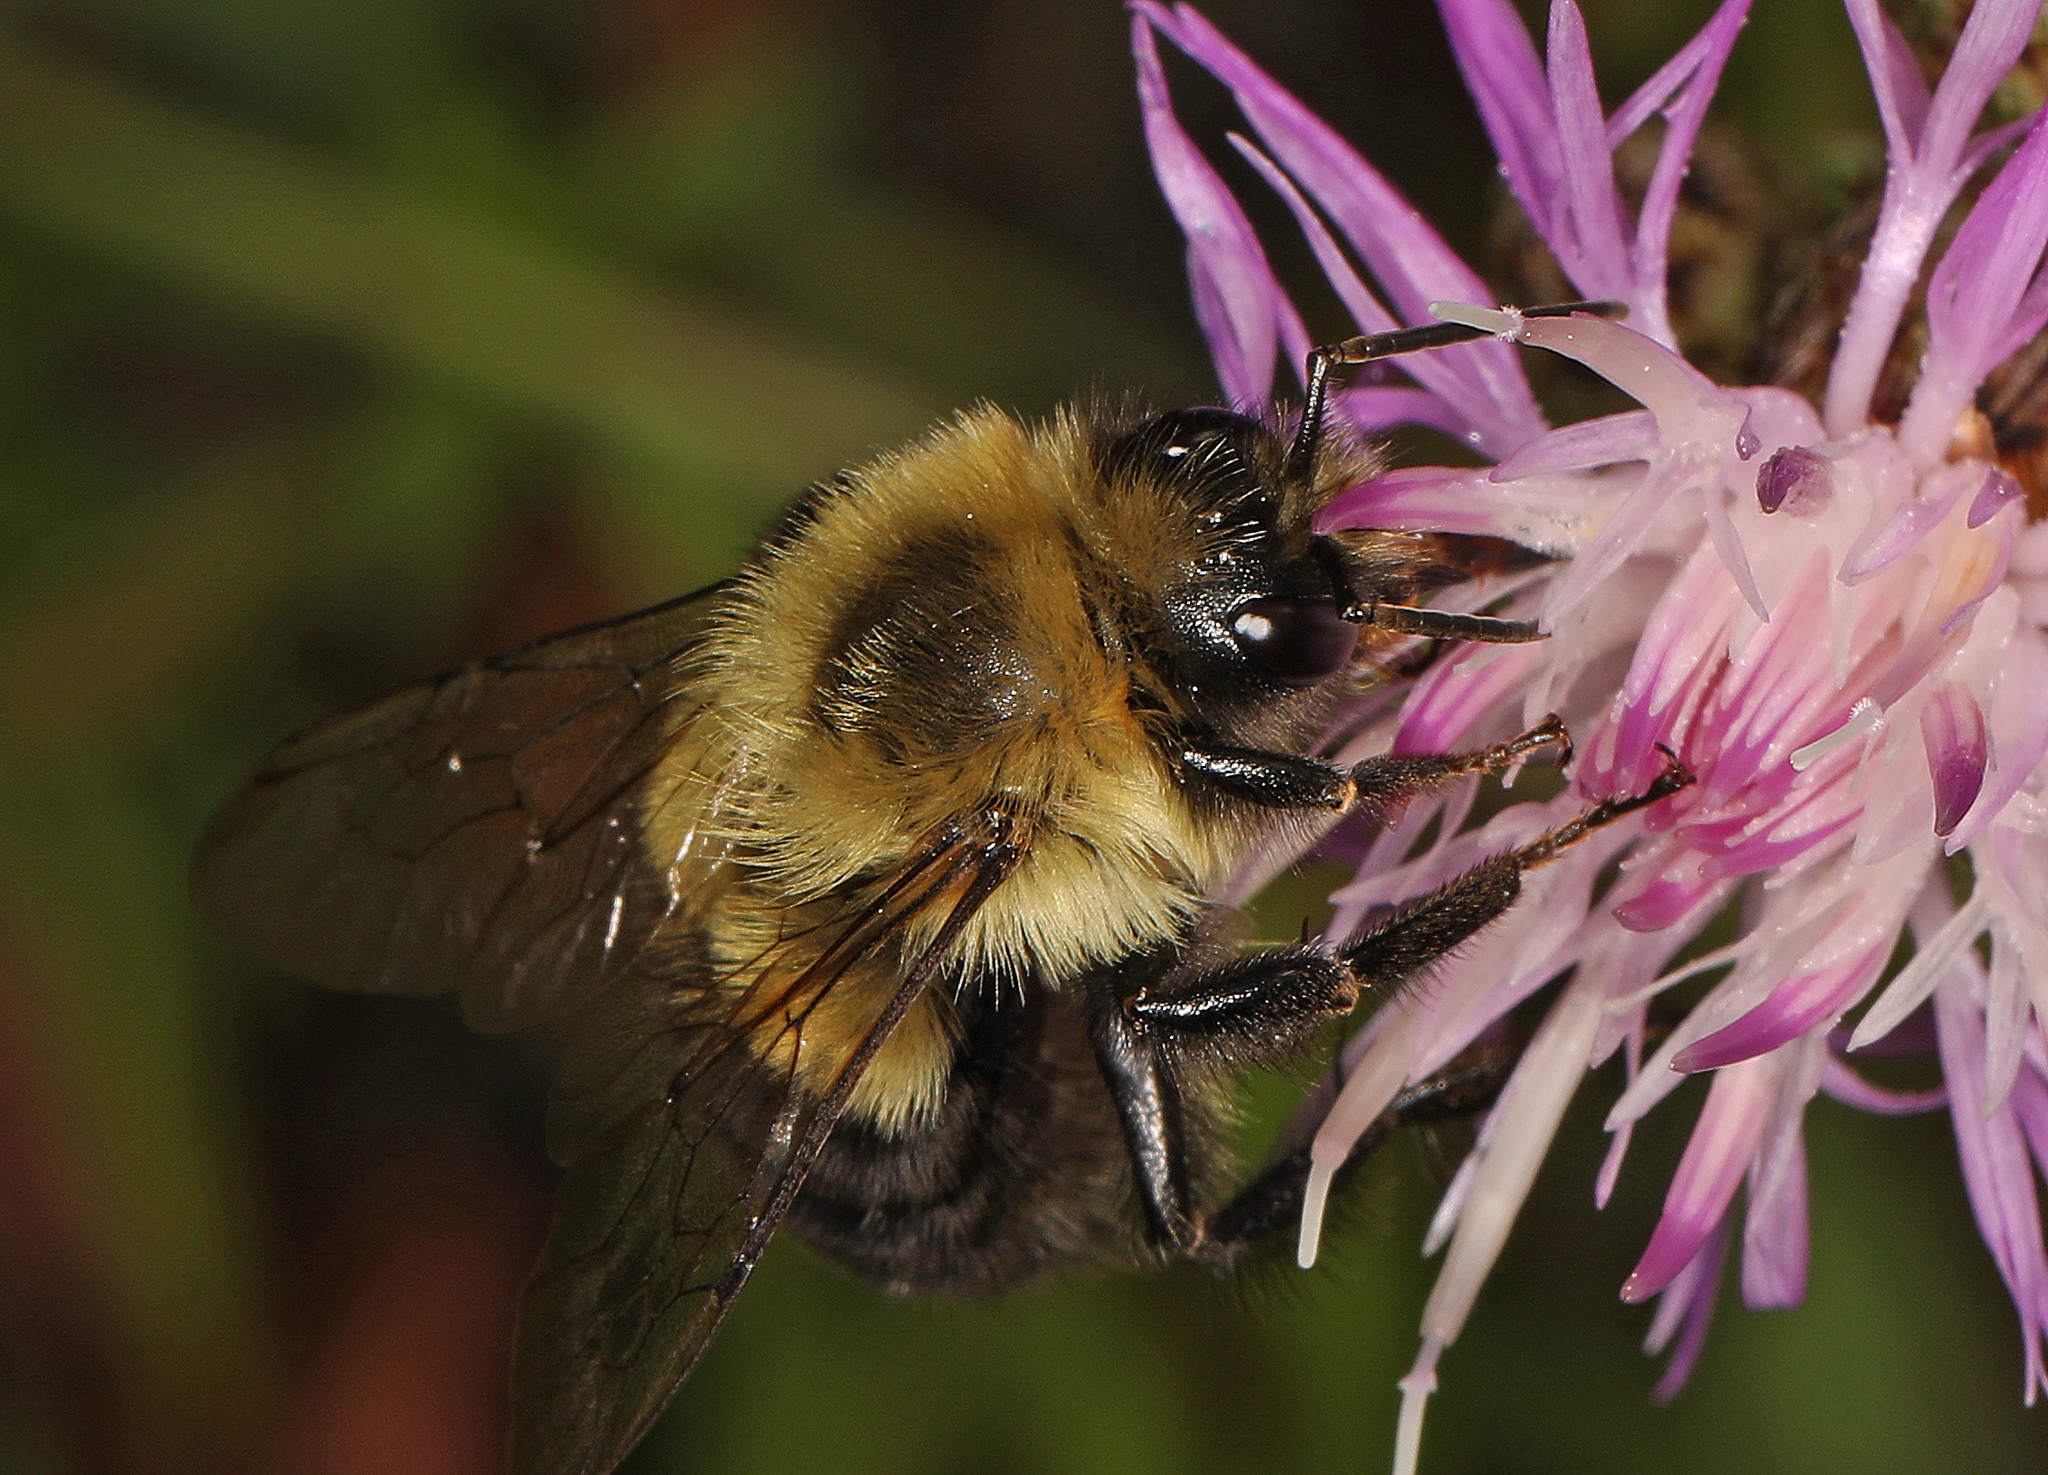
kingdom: Animalia
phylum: Arthropoda
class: Insecta
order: Hymenoptera
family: Apidae
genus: Bombus
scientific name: Bombus impatiens
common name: Common eastern bumble bee
